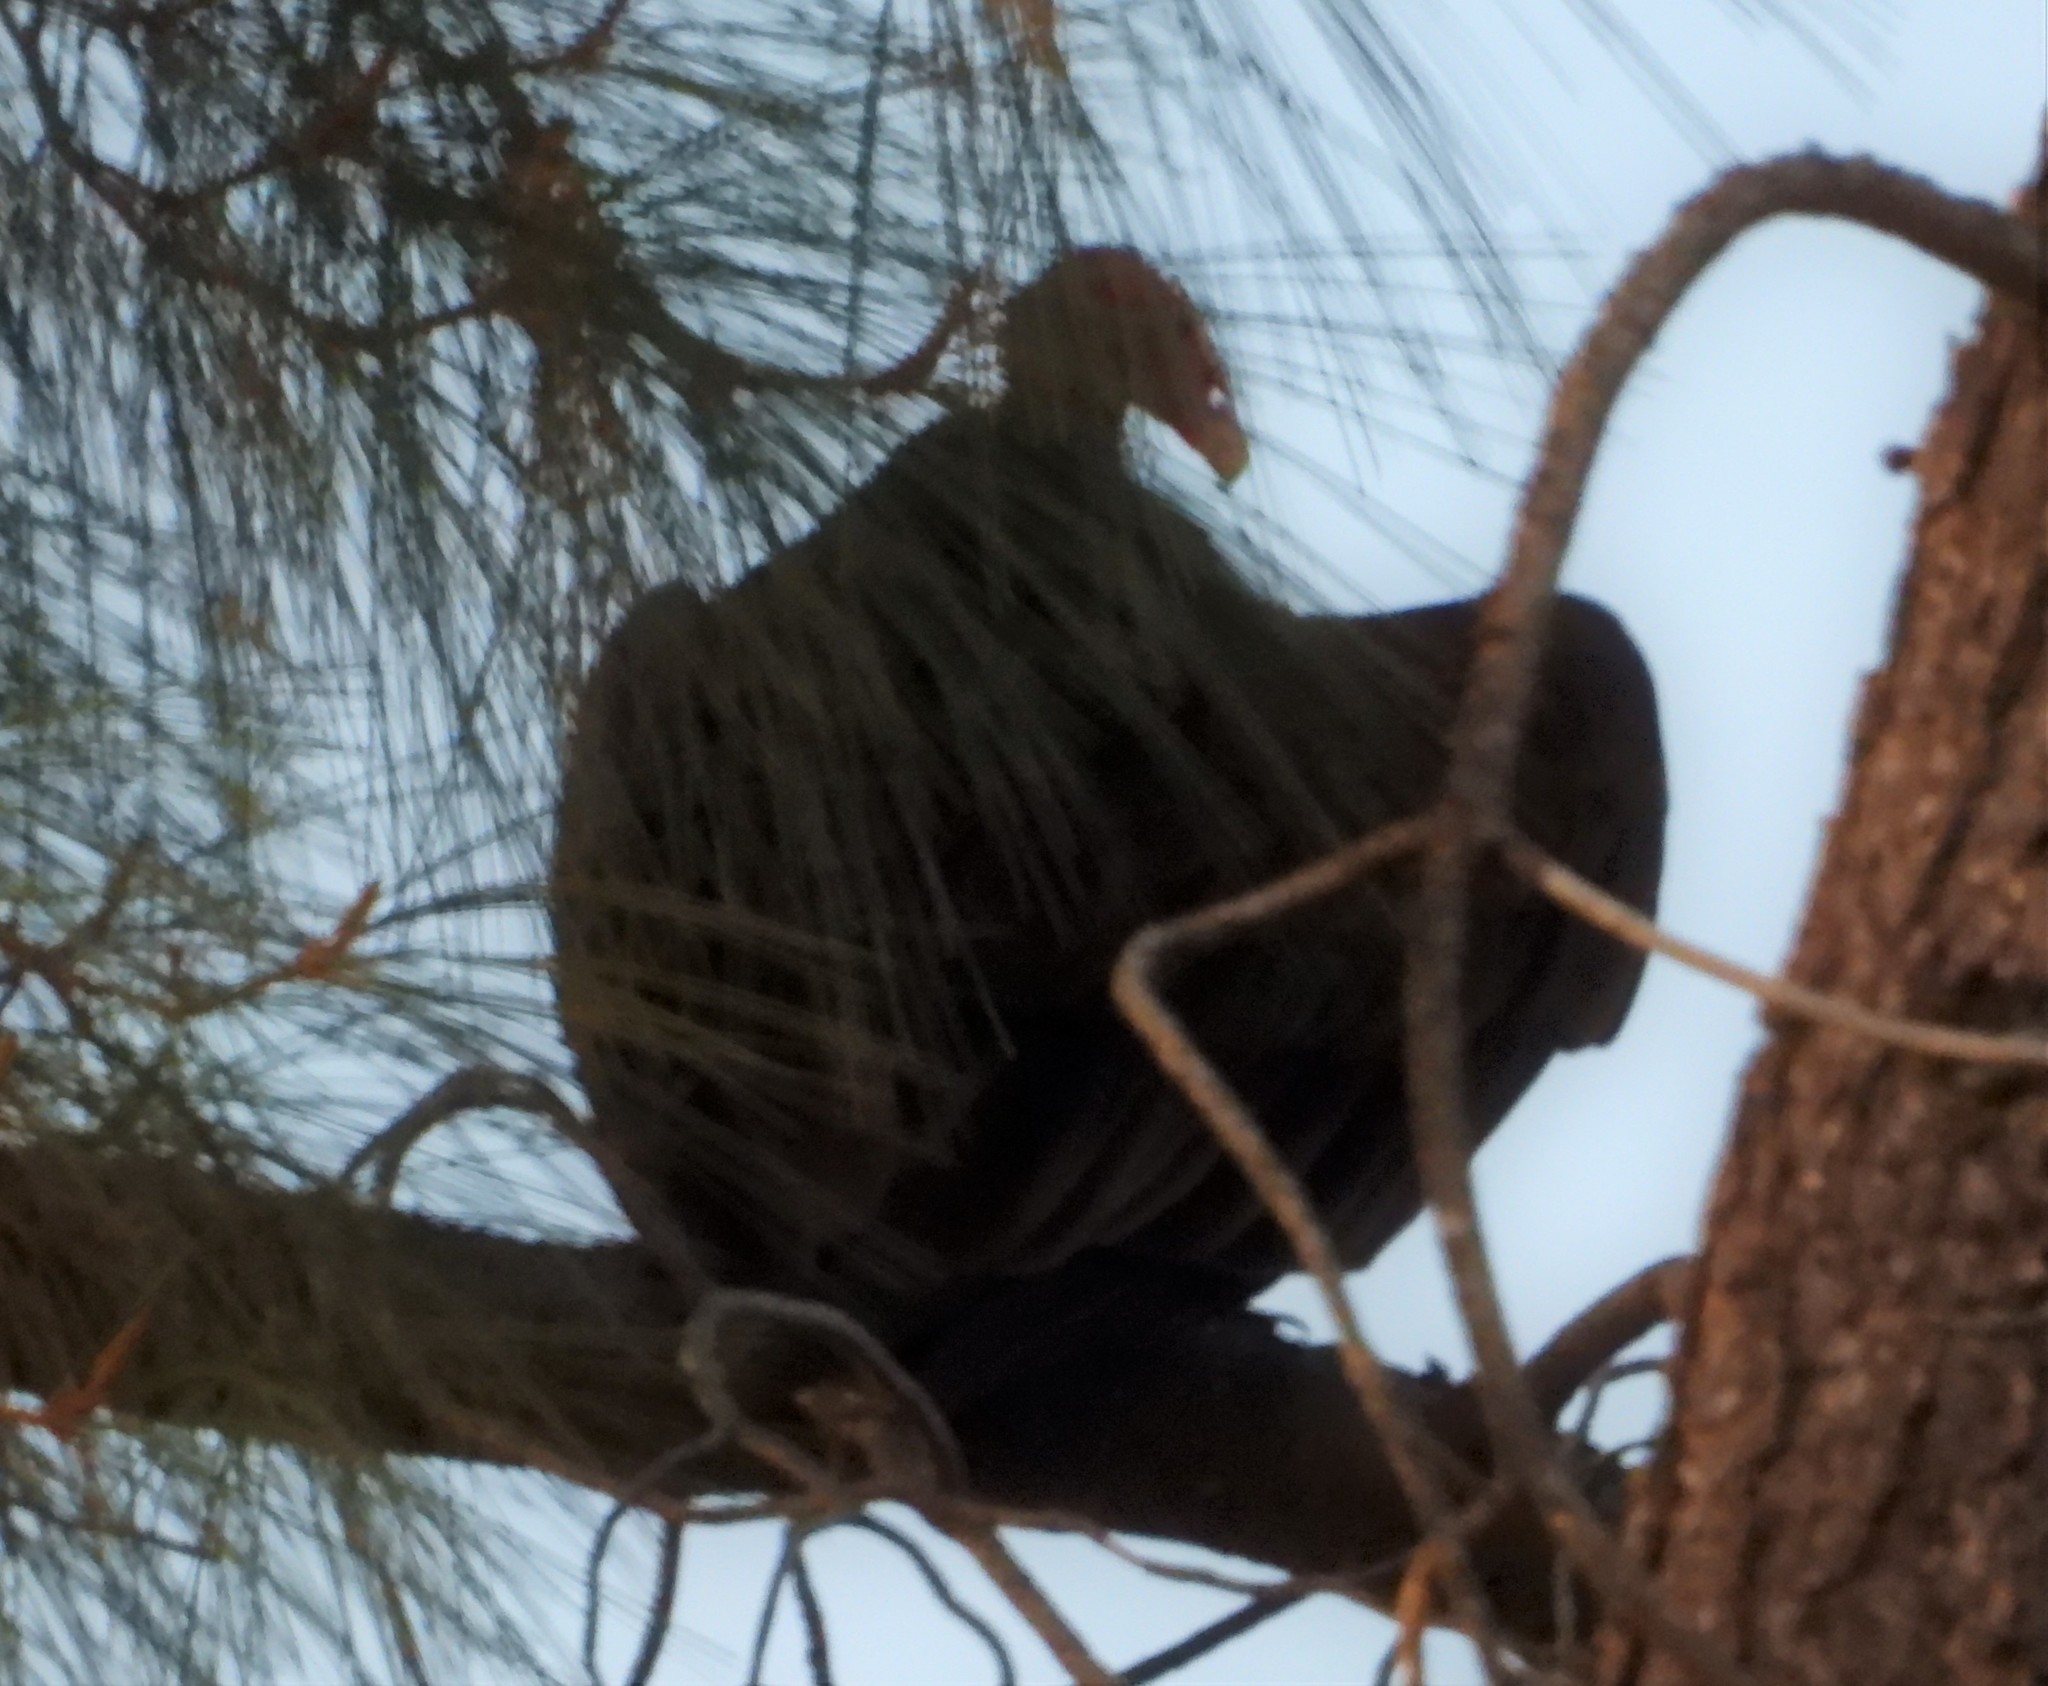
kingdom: Animalia
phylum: Chordata
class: Aves
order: Accipitriformes
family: Cathartidae
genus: Cathartes
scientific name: Cathartes aura
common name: Turkey vulture
